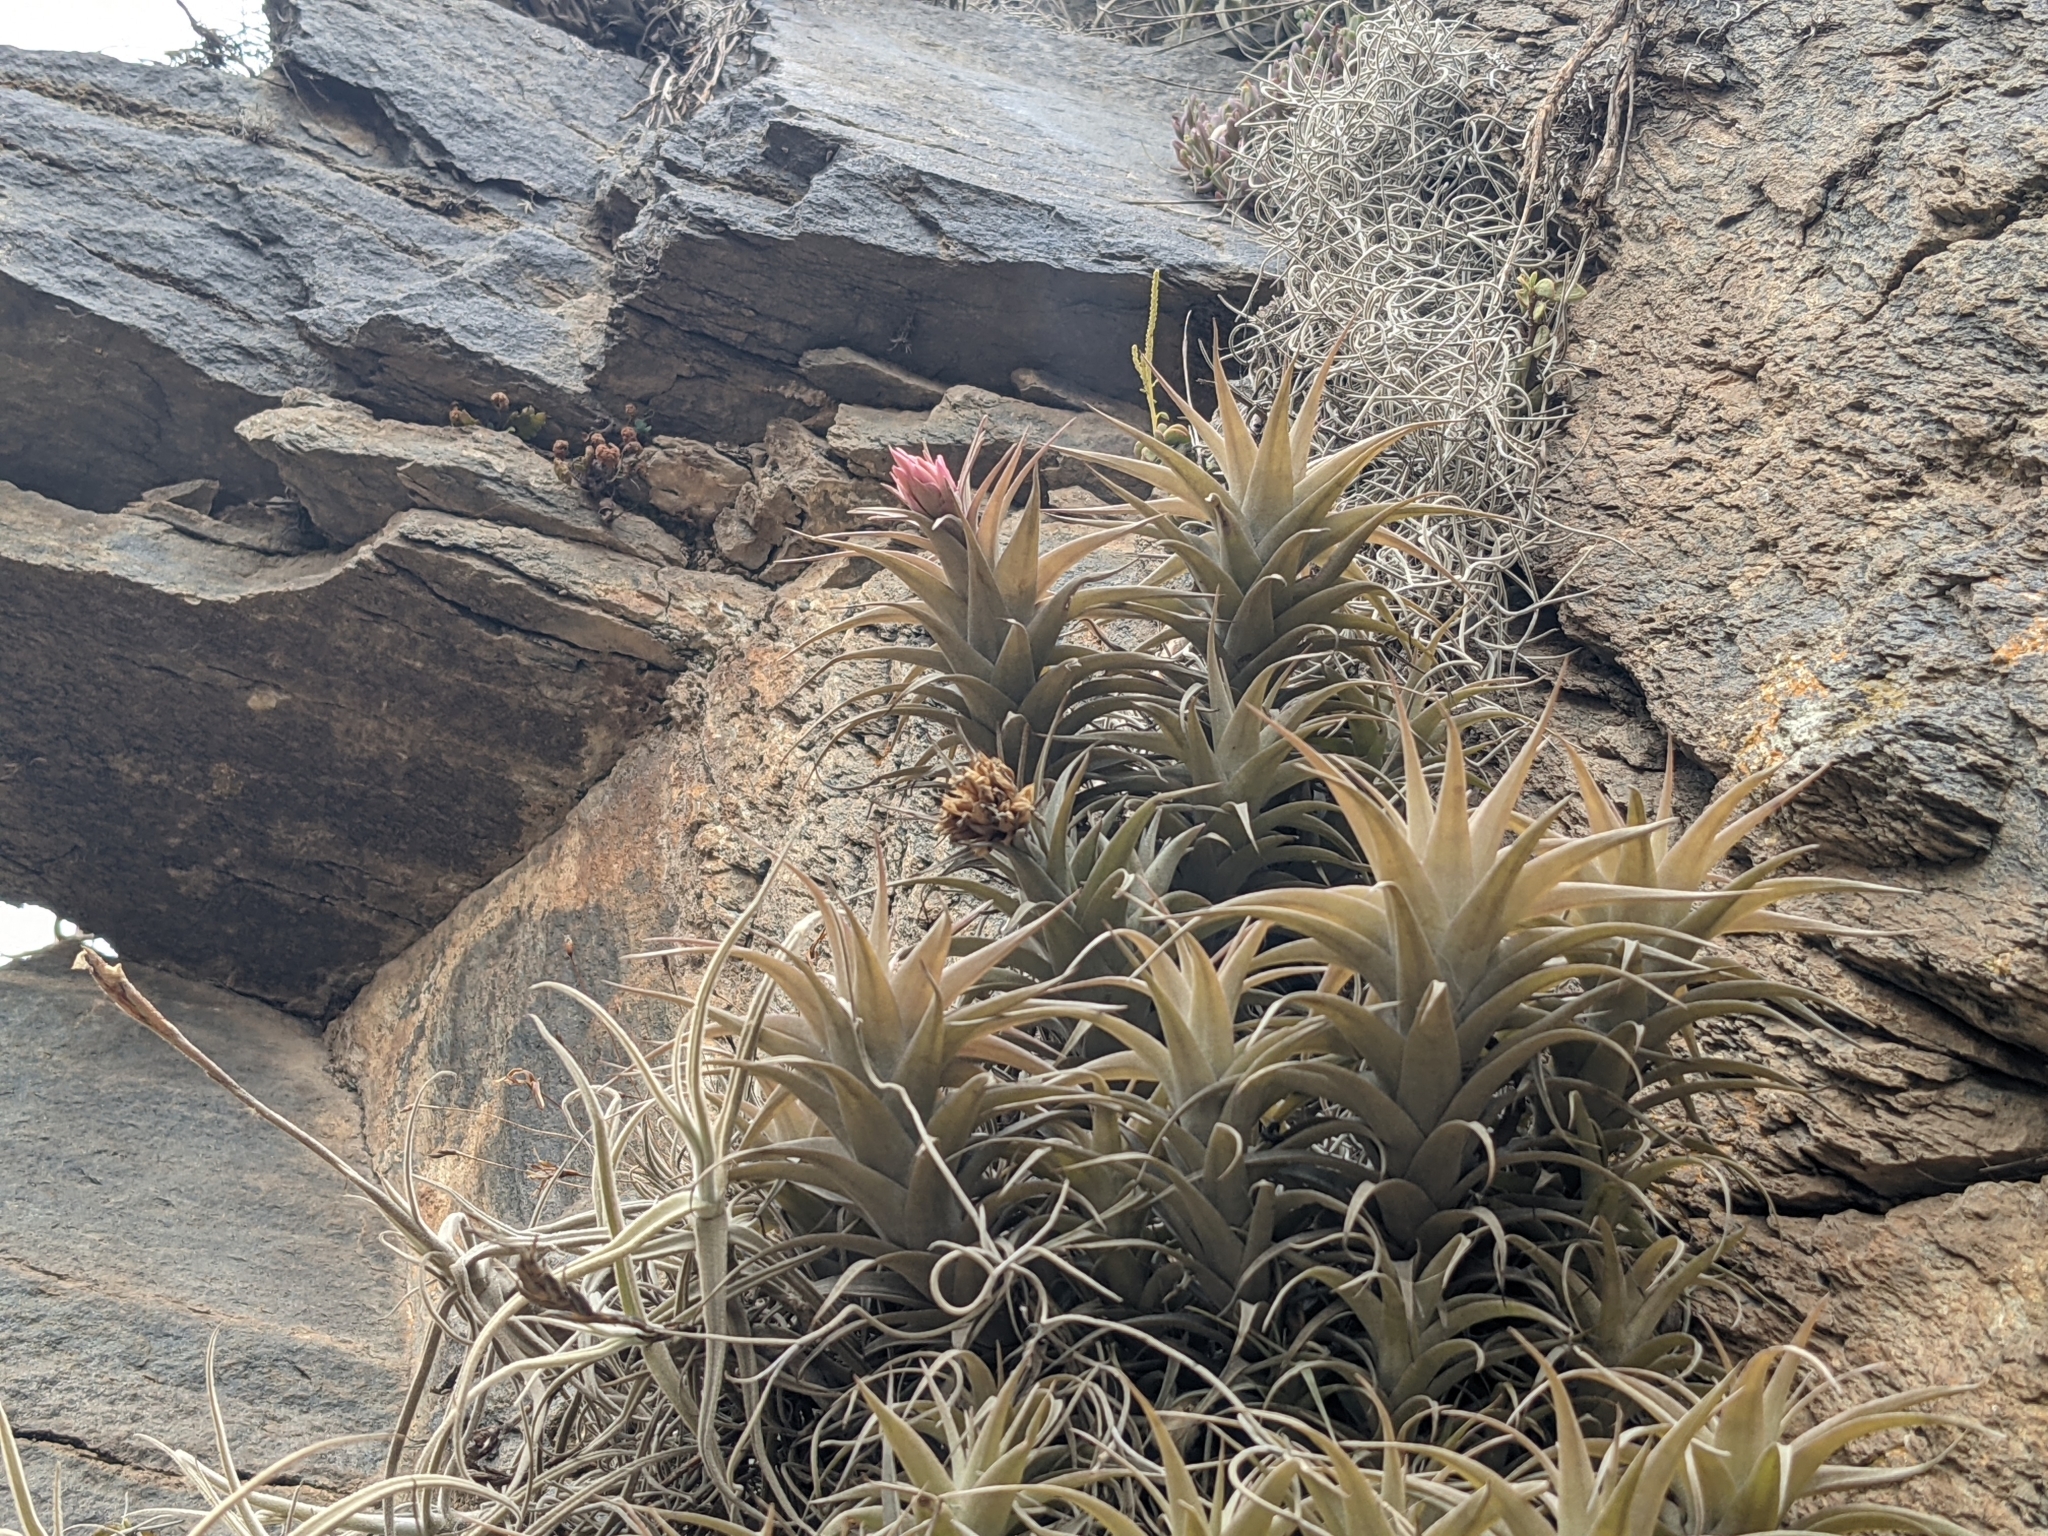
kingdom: Plantae
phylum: Tracheophyta
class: Liliopsida
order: Poales
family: Bromeliaceae
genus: Tillandsia
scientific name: Tillandsia nana
